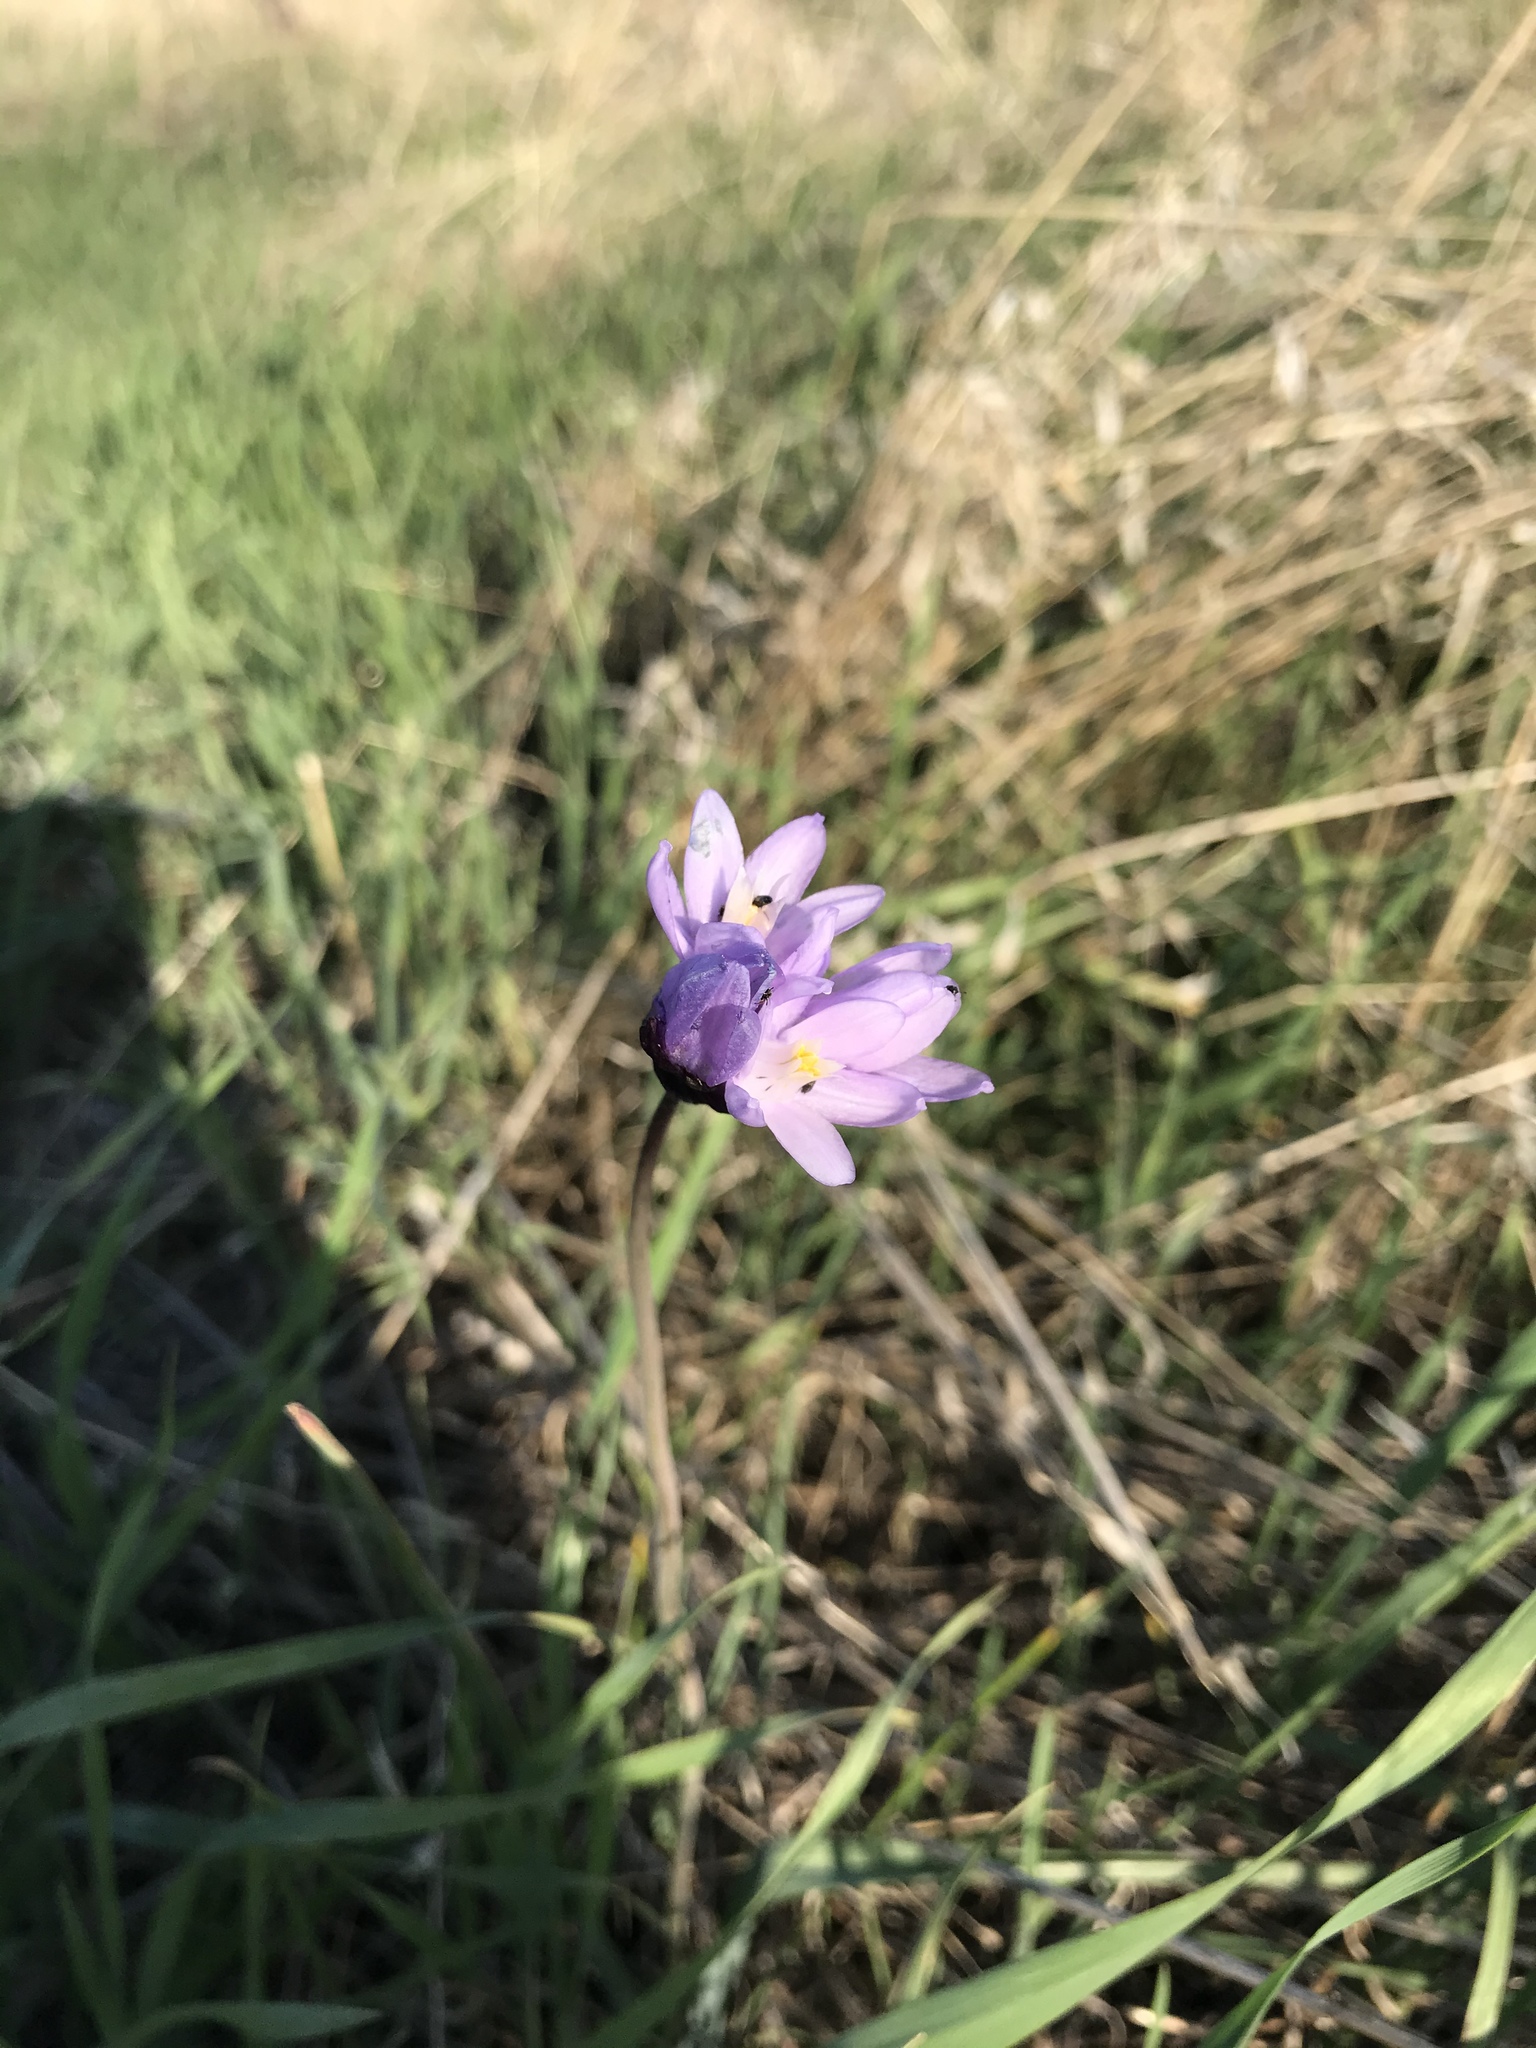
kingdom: Plantae
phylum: Tracheophyta
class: Liliopsida
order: Asparagales
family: Asparagaceae
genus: Dipterostemon
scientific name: Dipterostemon capitatus
